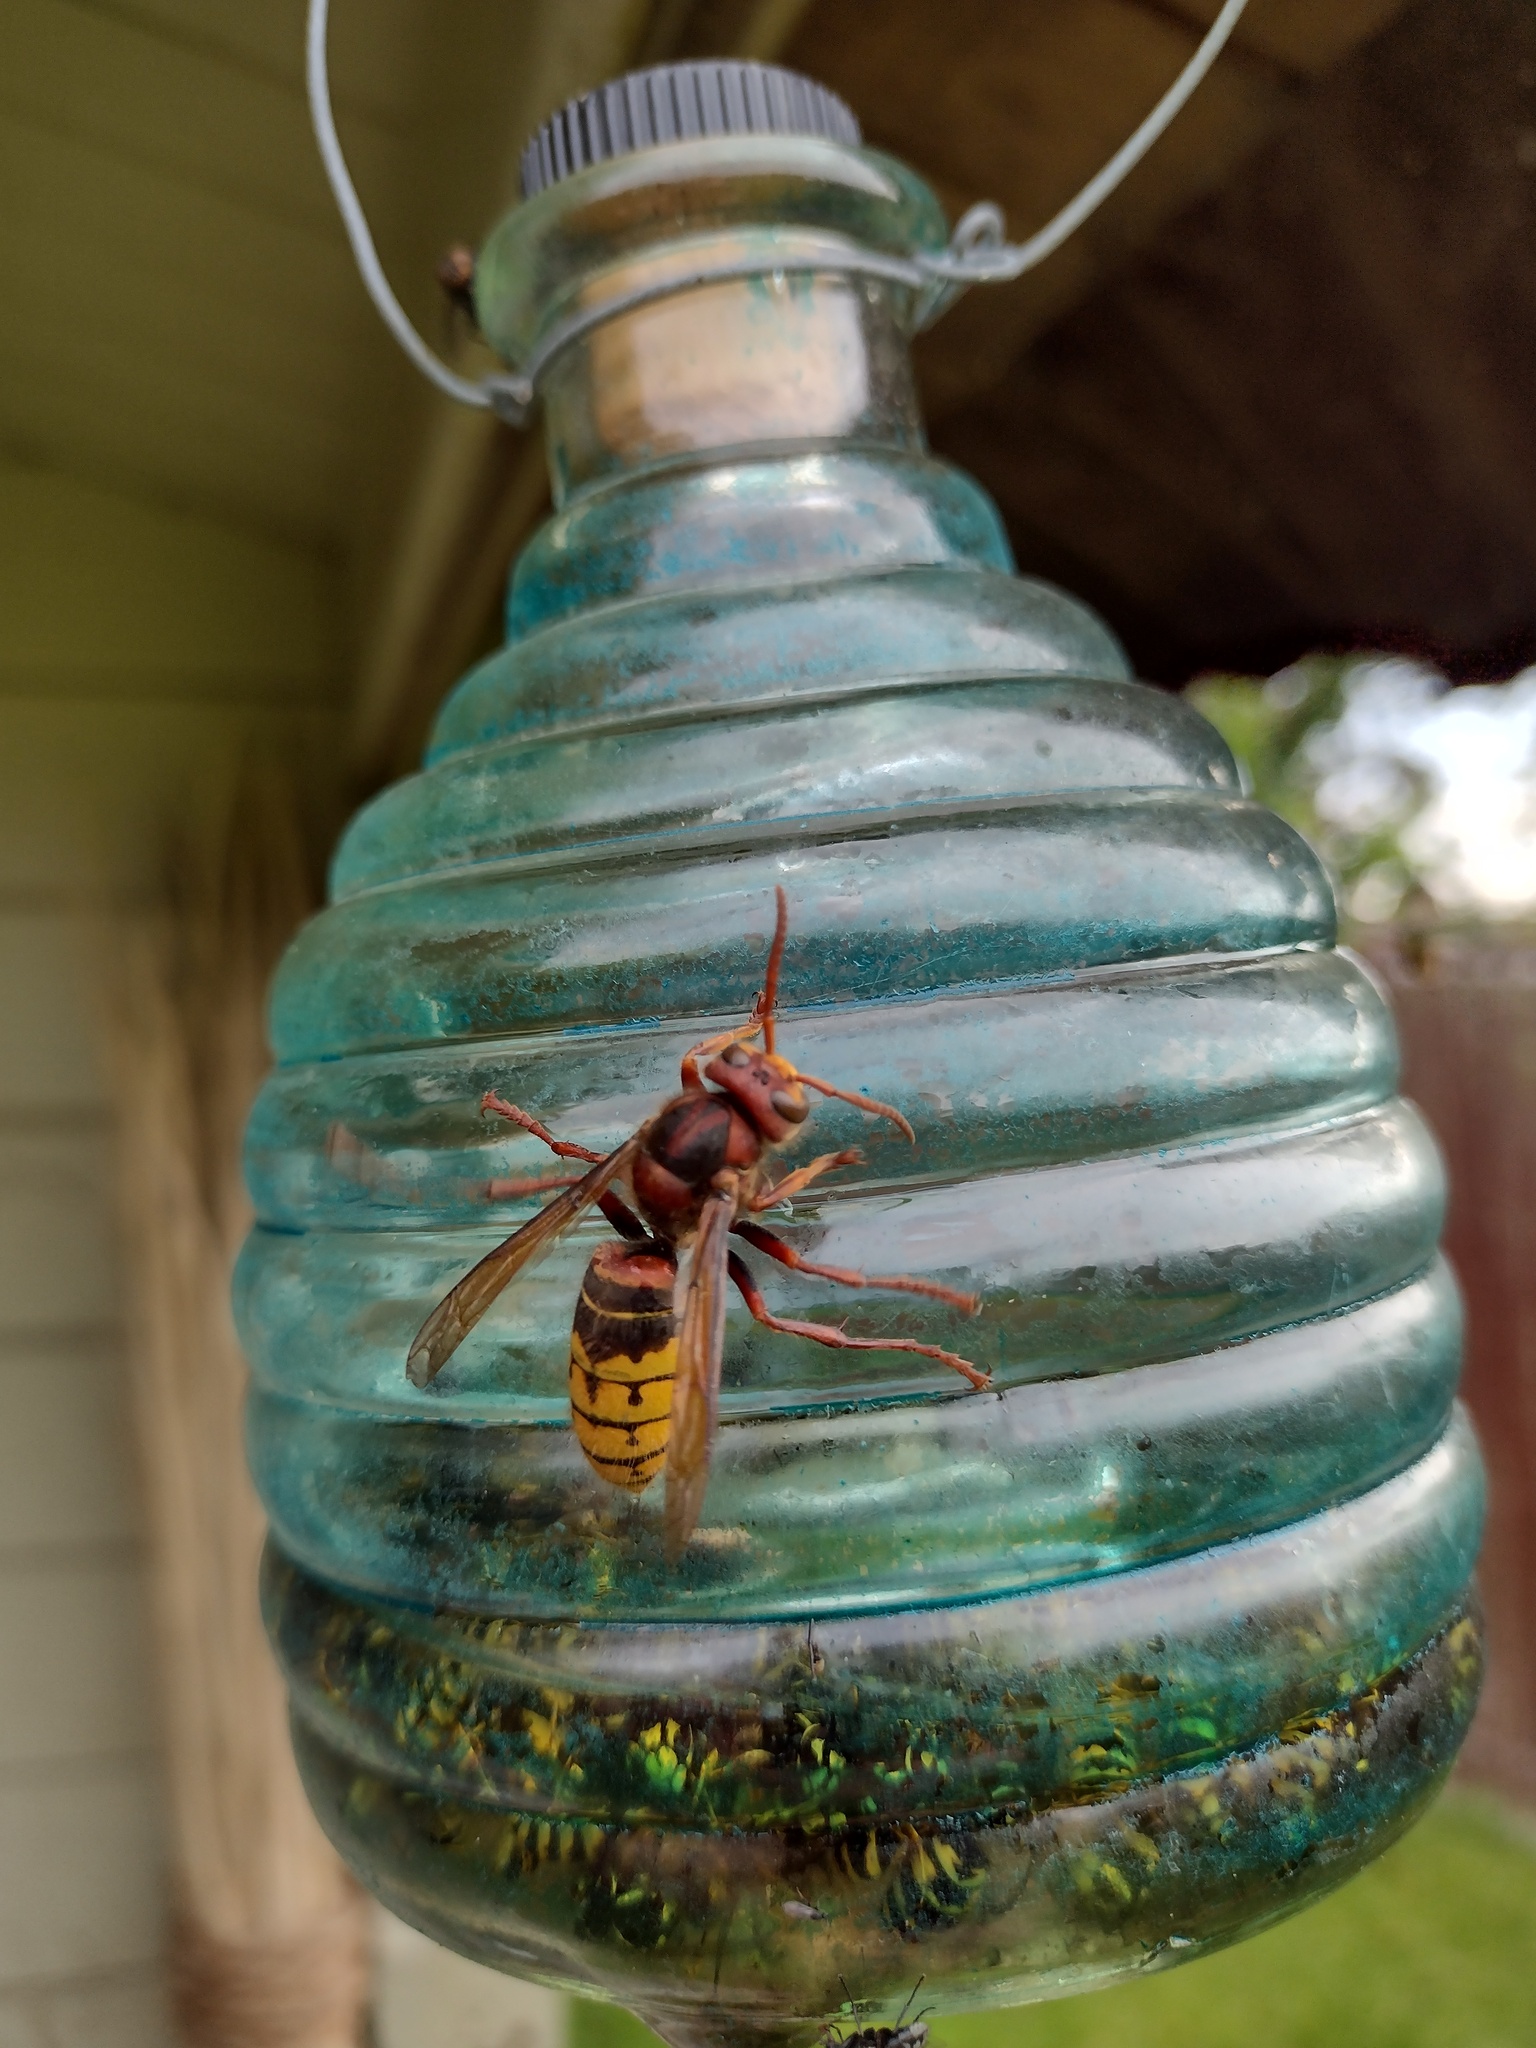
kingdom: Animalia
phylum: Arthropoda
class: Insecta
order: Hymenoptera
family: Vespidae
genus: Vespa
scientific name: Vespa crabro
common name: Hornet
